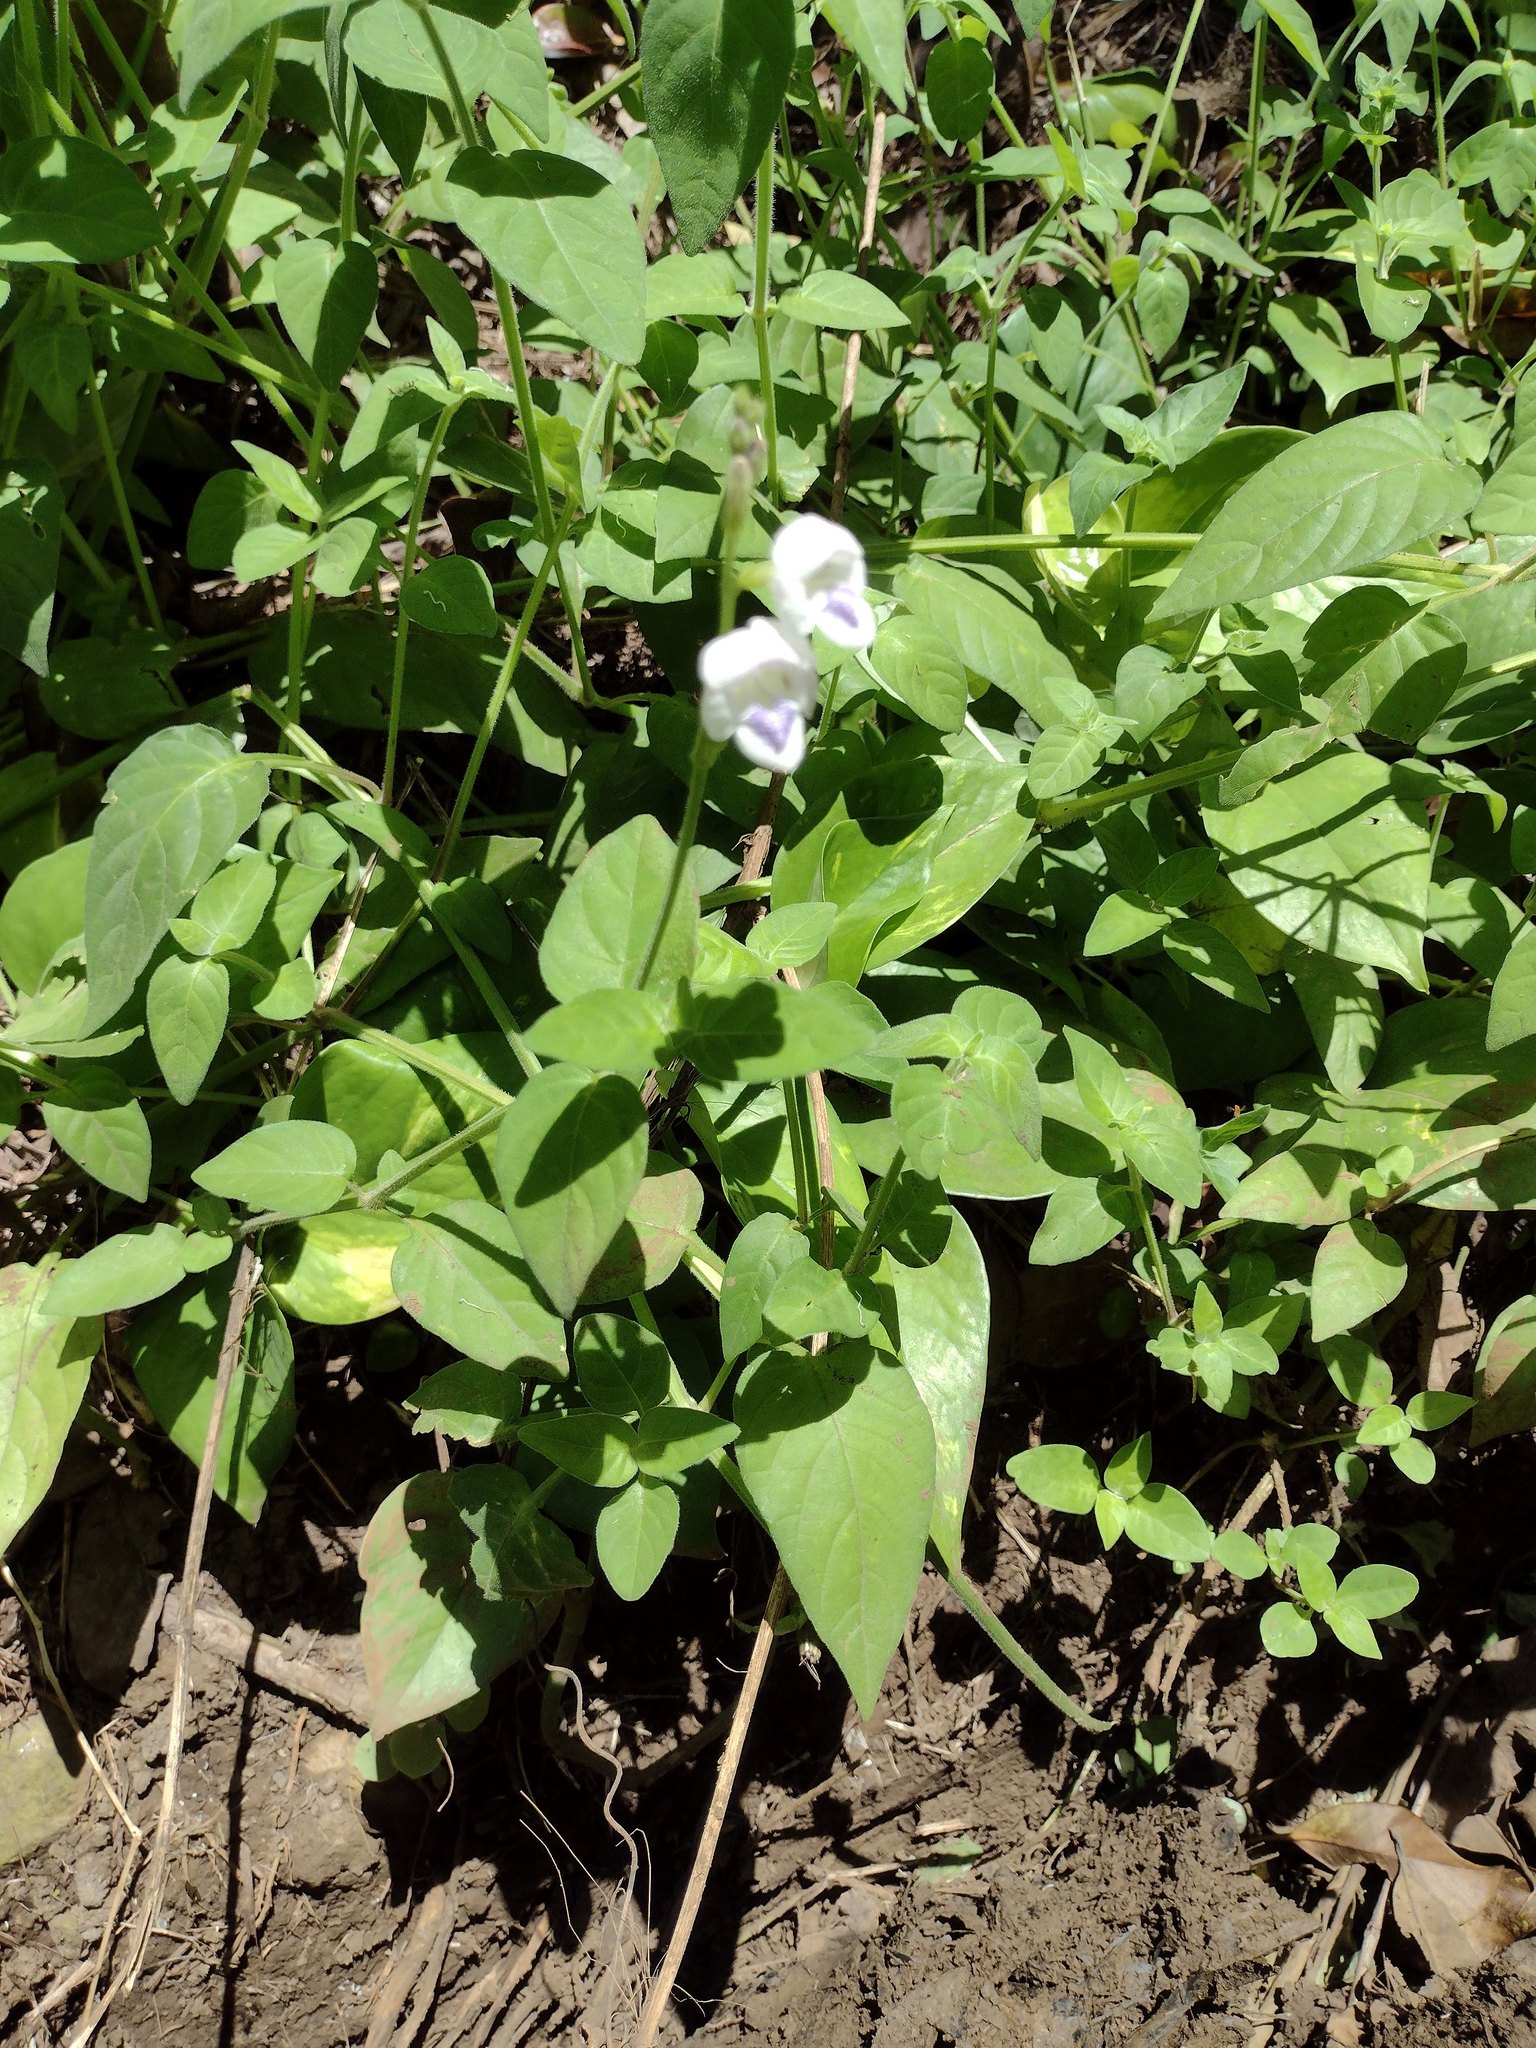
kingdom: Plantae
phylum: Tracheophyta
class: Magnoliopsida
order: Lamiales
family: Acanthaceae
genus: Asystasia
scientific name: Asystasia intrusa
